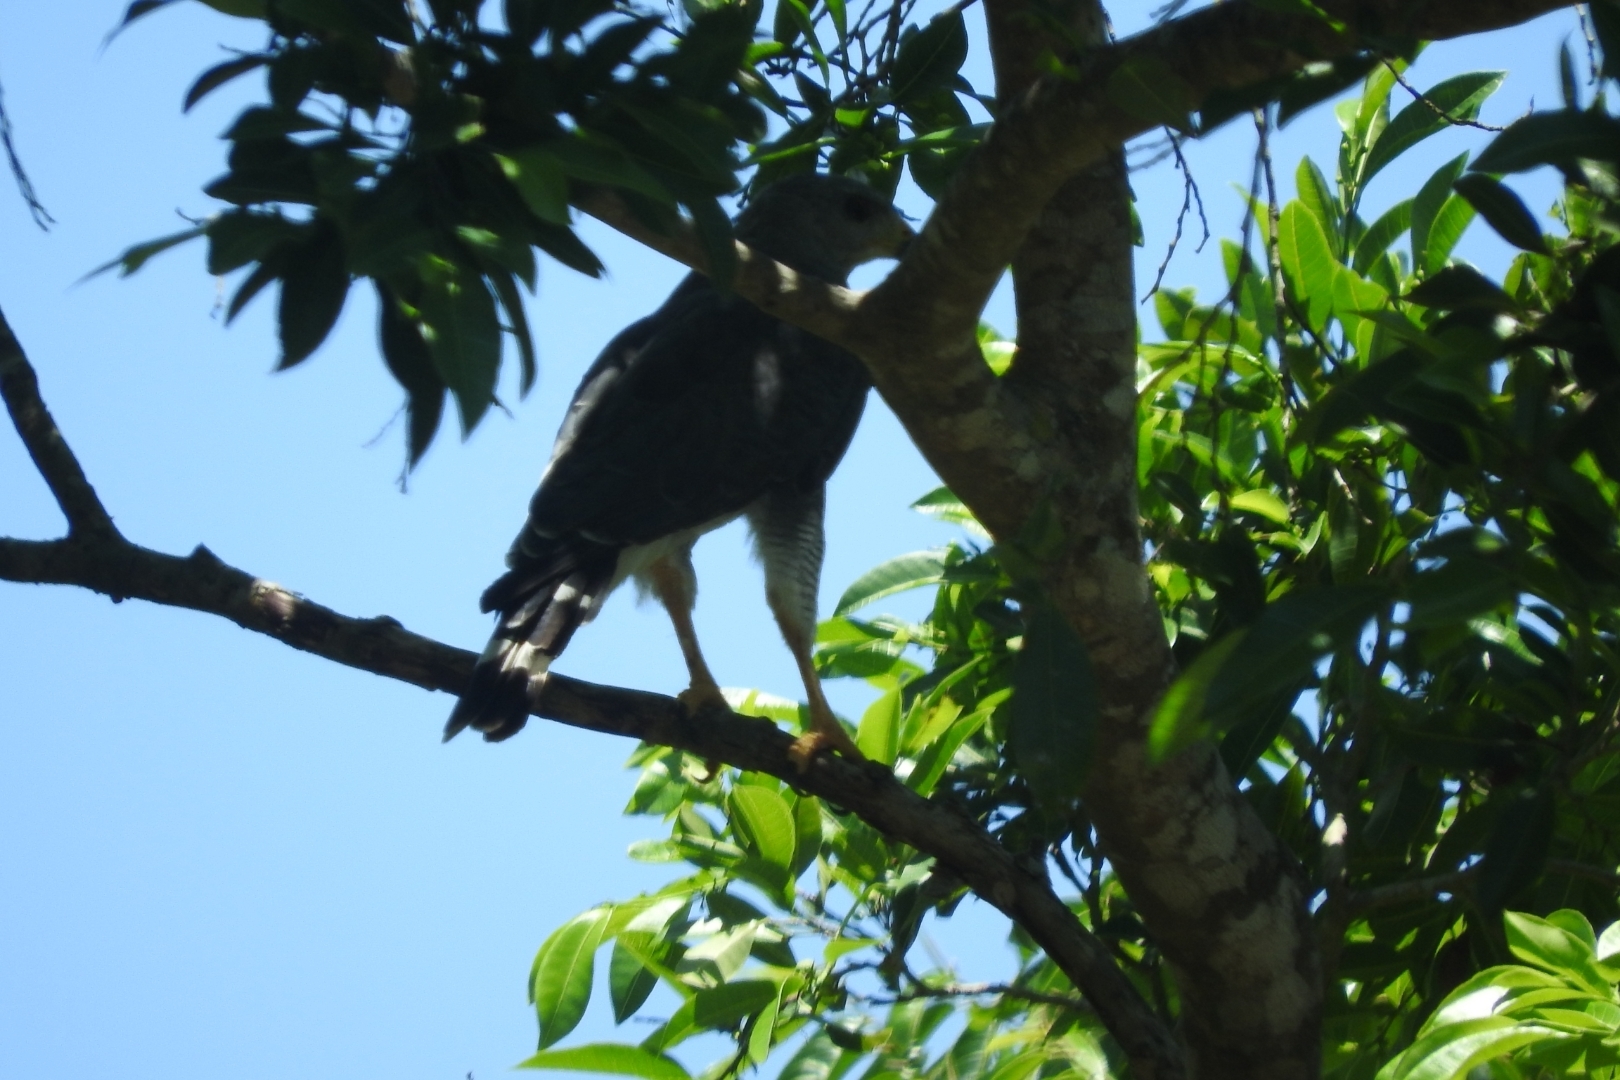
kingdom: Animalia
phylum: Chordata
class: Aves
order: Accipitriformes
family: Accipitridae
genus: Buteo
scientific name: Buteo nitidus
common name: Grey-lined hawk
